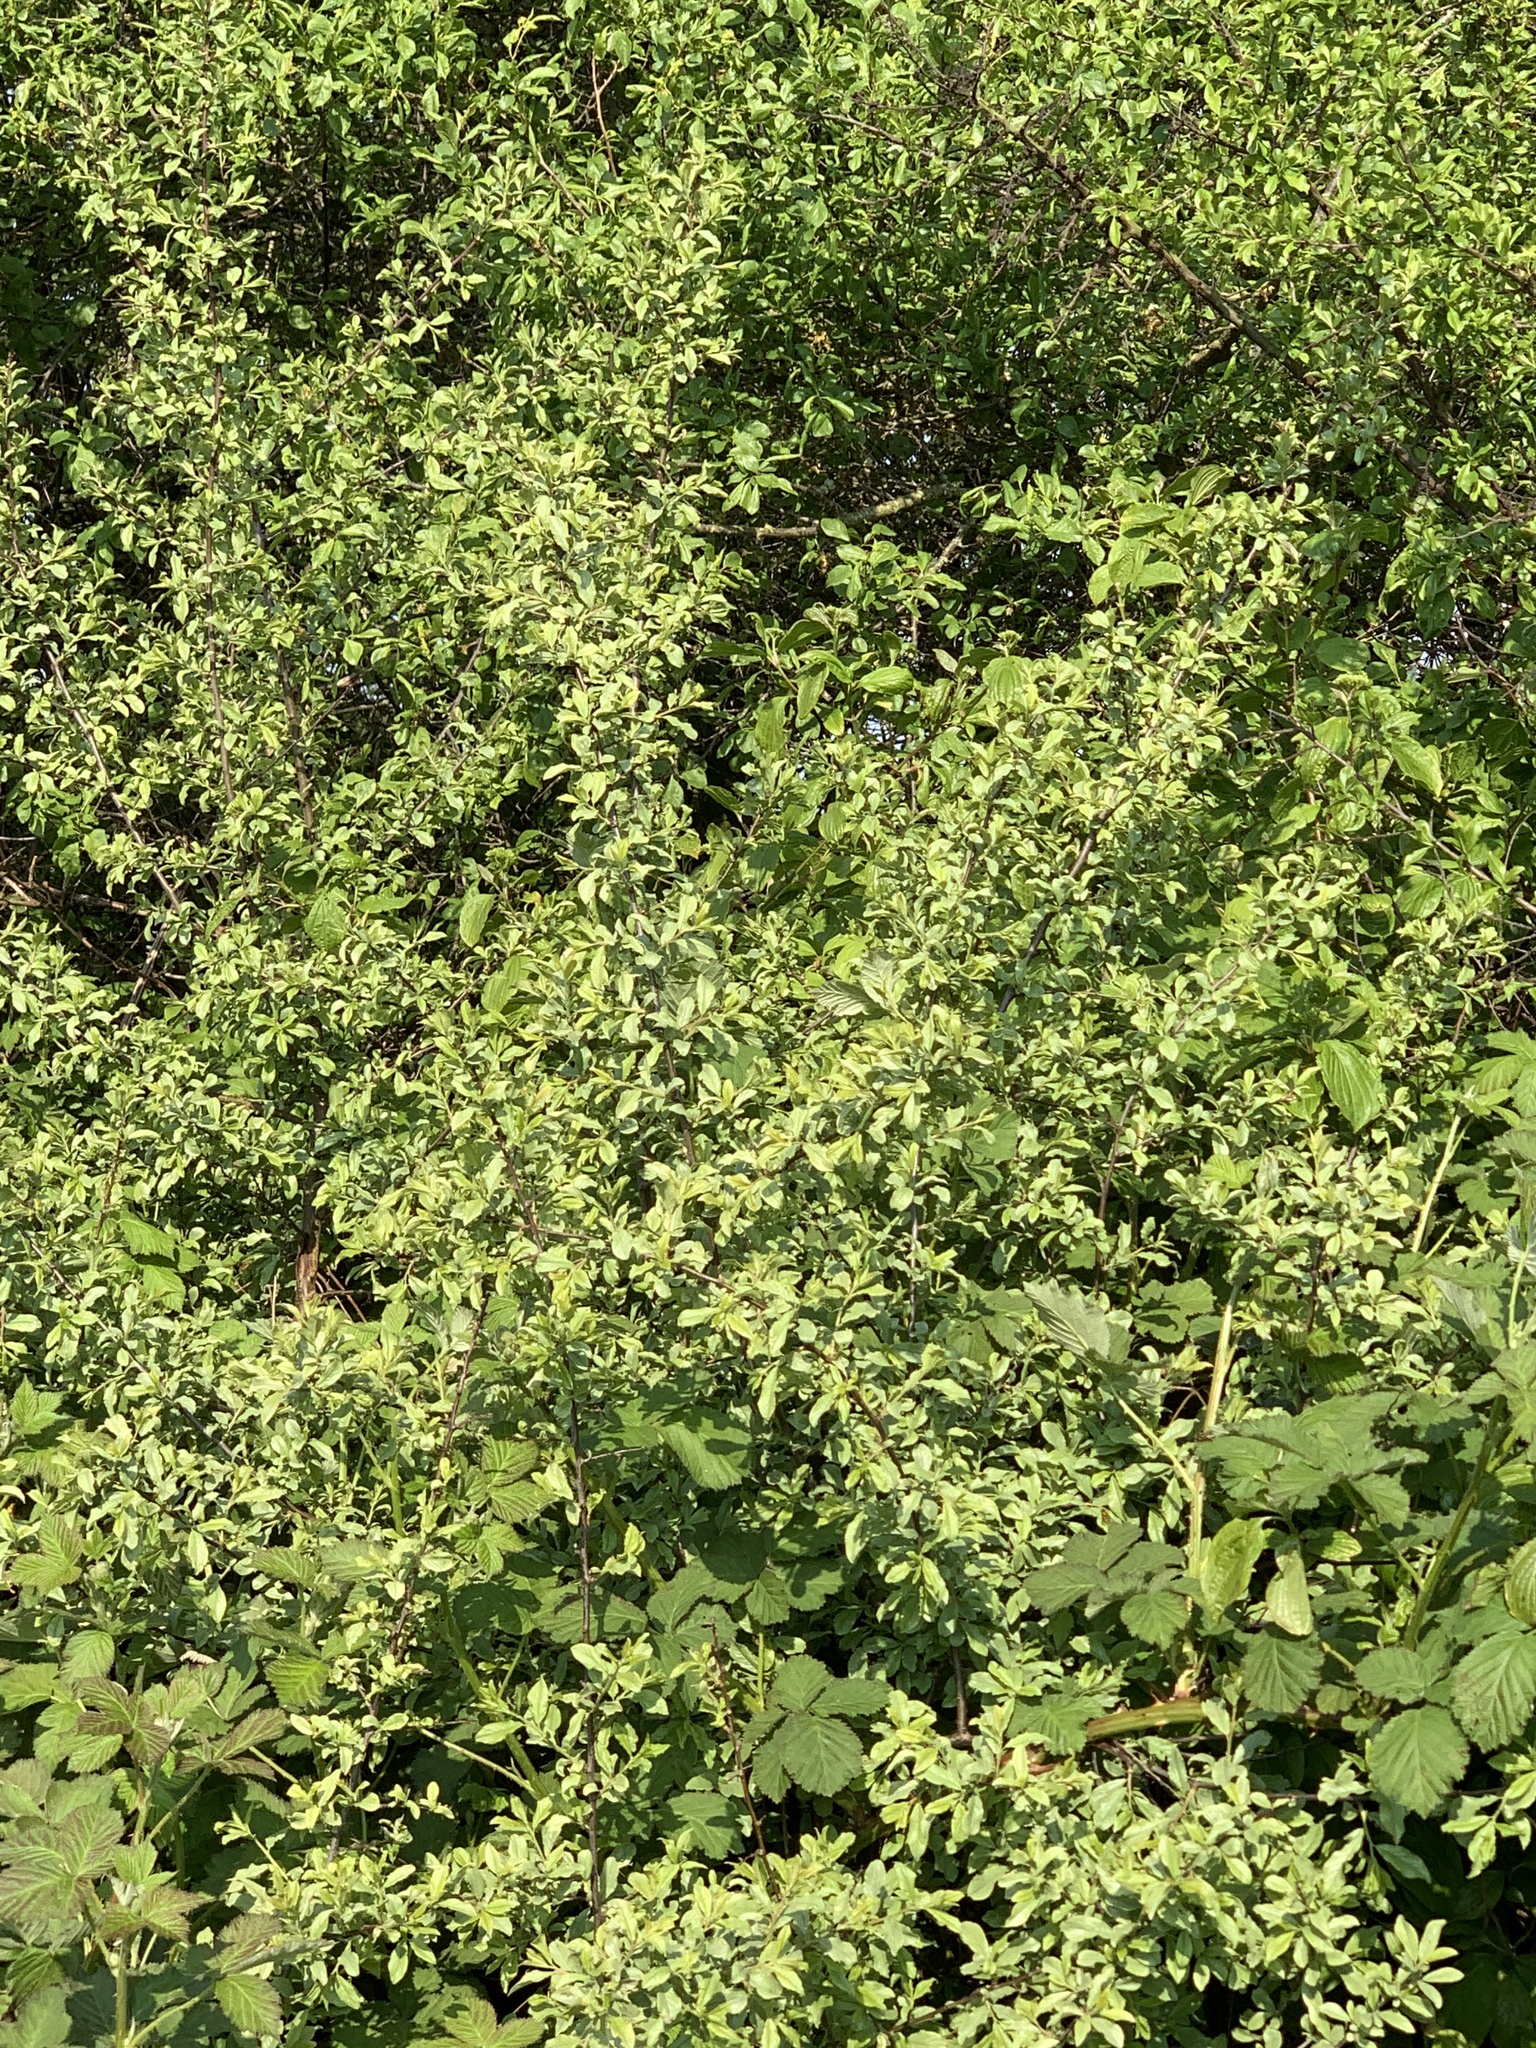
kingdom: Plantae
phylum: Tracheophyta
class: Magnoliopsida
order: Rosales
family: Rosaceae
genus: Prunus
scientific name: Prunus spinosa
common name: Blackthorn
